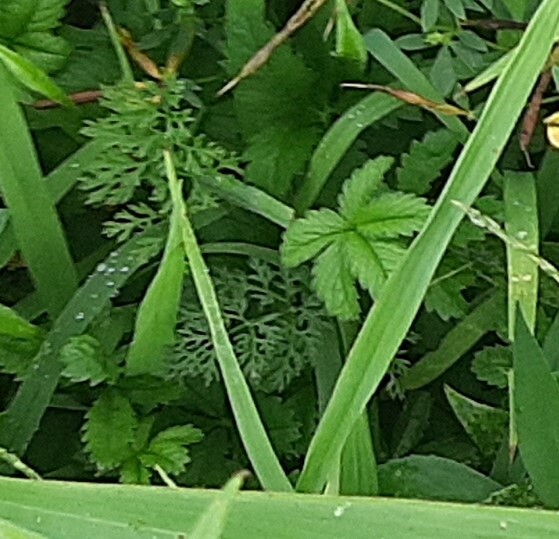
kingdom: Plantae
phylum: Tracheophyta
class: Magnoliopsida
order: Rosales
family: Rosaceae
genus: Potentilla
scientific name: Potentilla reptans
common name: Creeping cinquefoil
